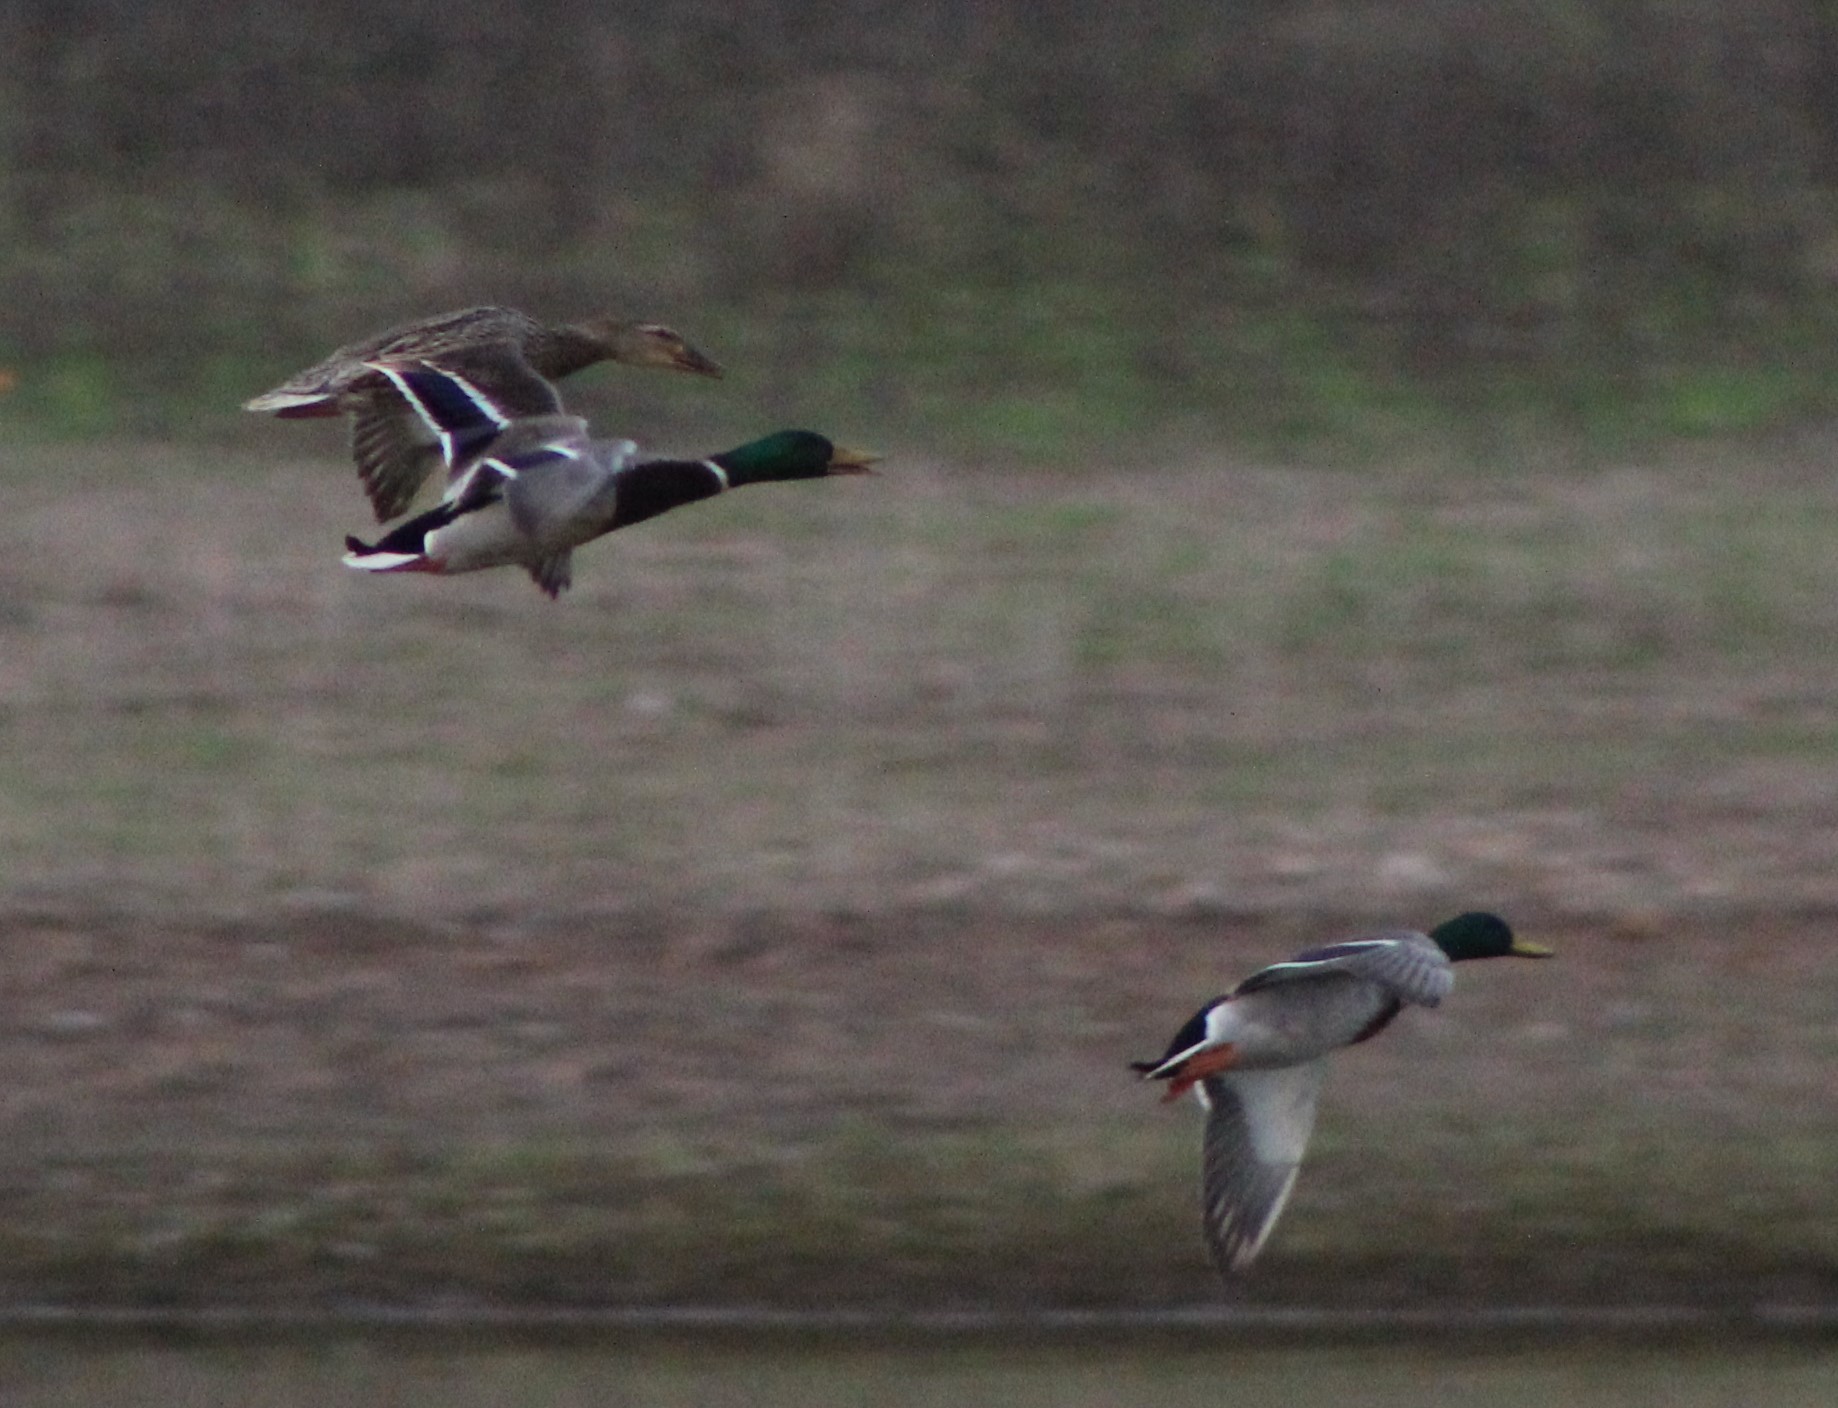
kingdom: Animalia
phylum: Chordata
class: Aves
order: Anseriformes
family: Anatidae
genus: Anas
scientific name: Anas platyrhynchos
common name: Mallard
